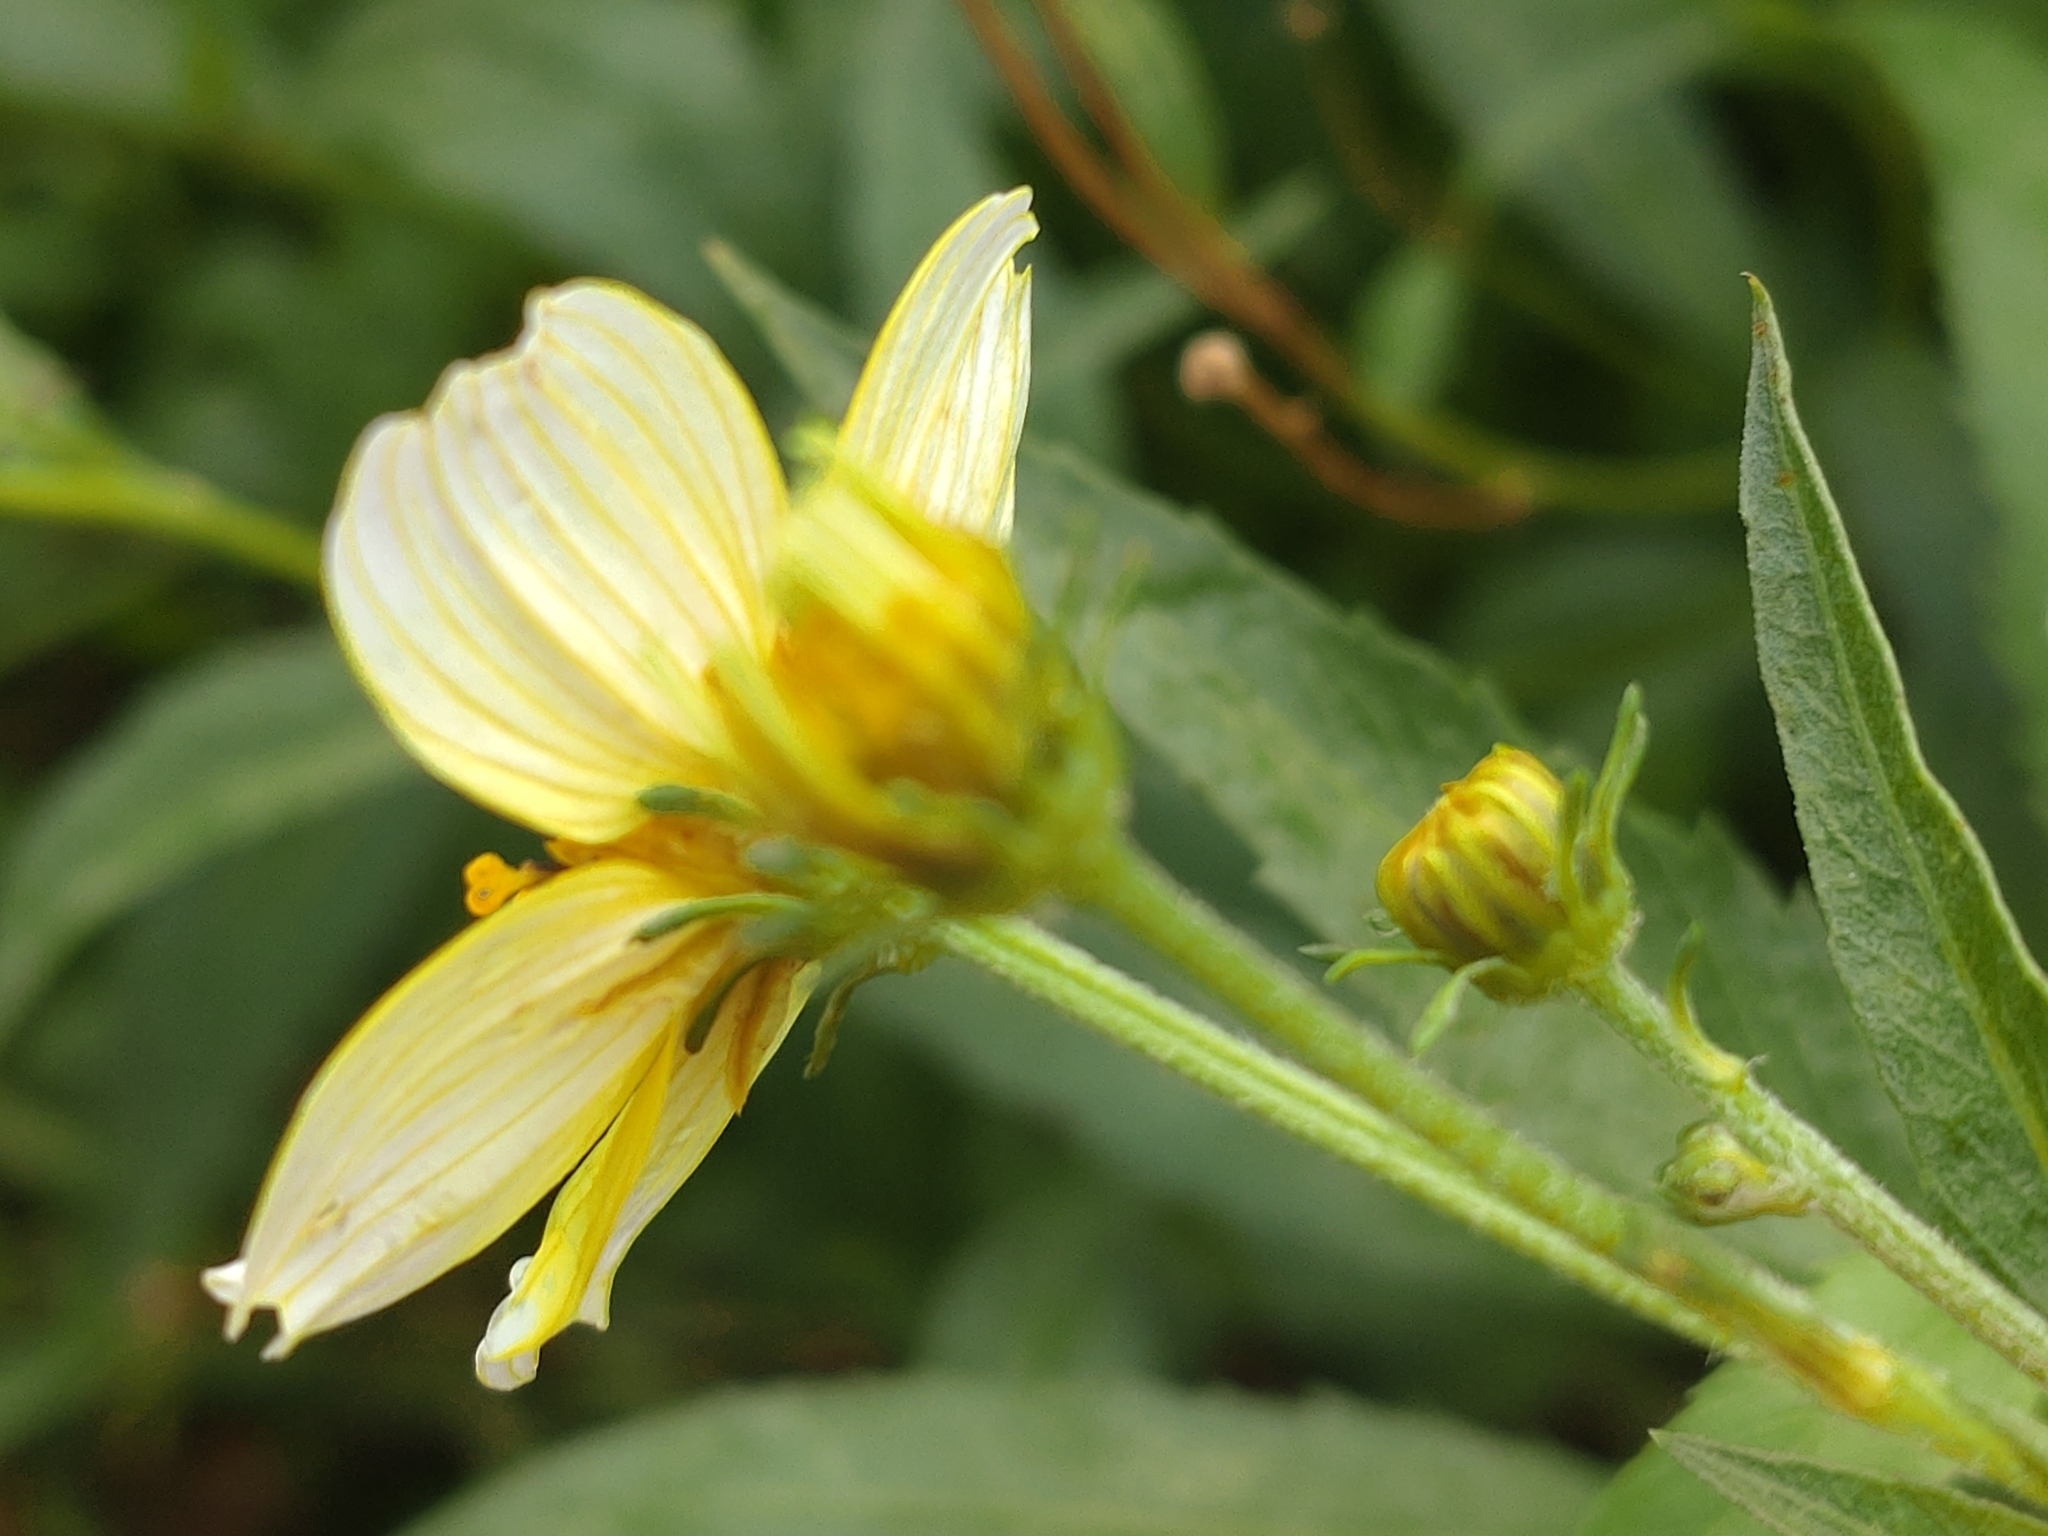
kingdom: Plantae
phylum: Tracheophyta
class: Magnoliopsida
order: Asterales
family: Asteraceae
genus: Bidens
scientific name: Bidens aurea
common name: Arizona beggar-ticks
